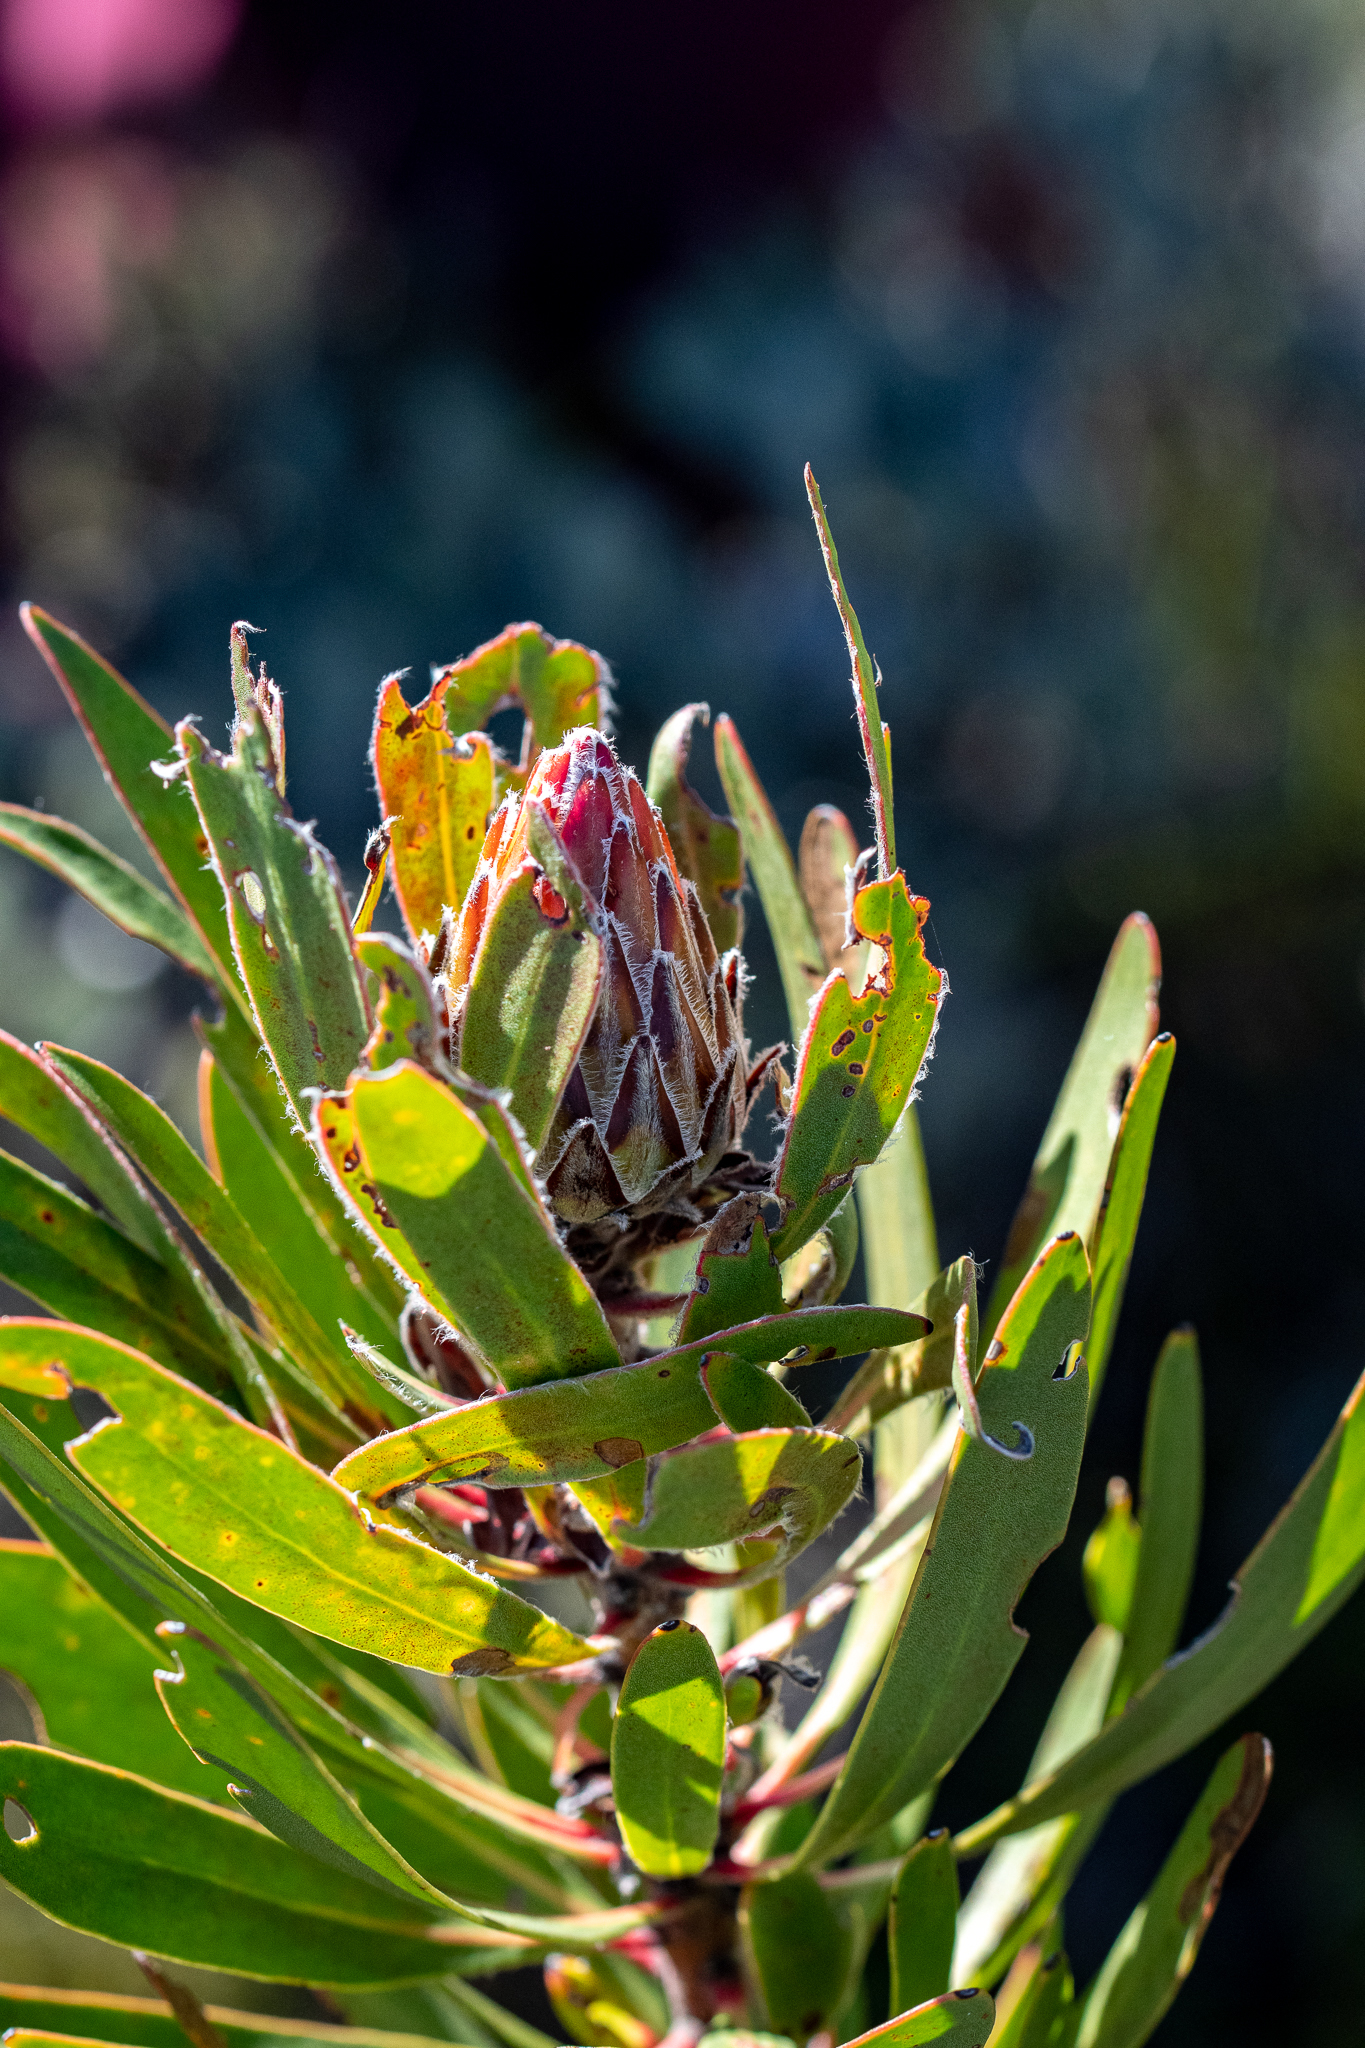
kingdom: Plantae
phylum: Tracheophyta
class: Magnoliopsida
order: Proteales
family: Proteaceae
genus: Protea
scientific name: Protea obtusifolia
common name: Bredasdorp sugarbush
